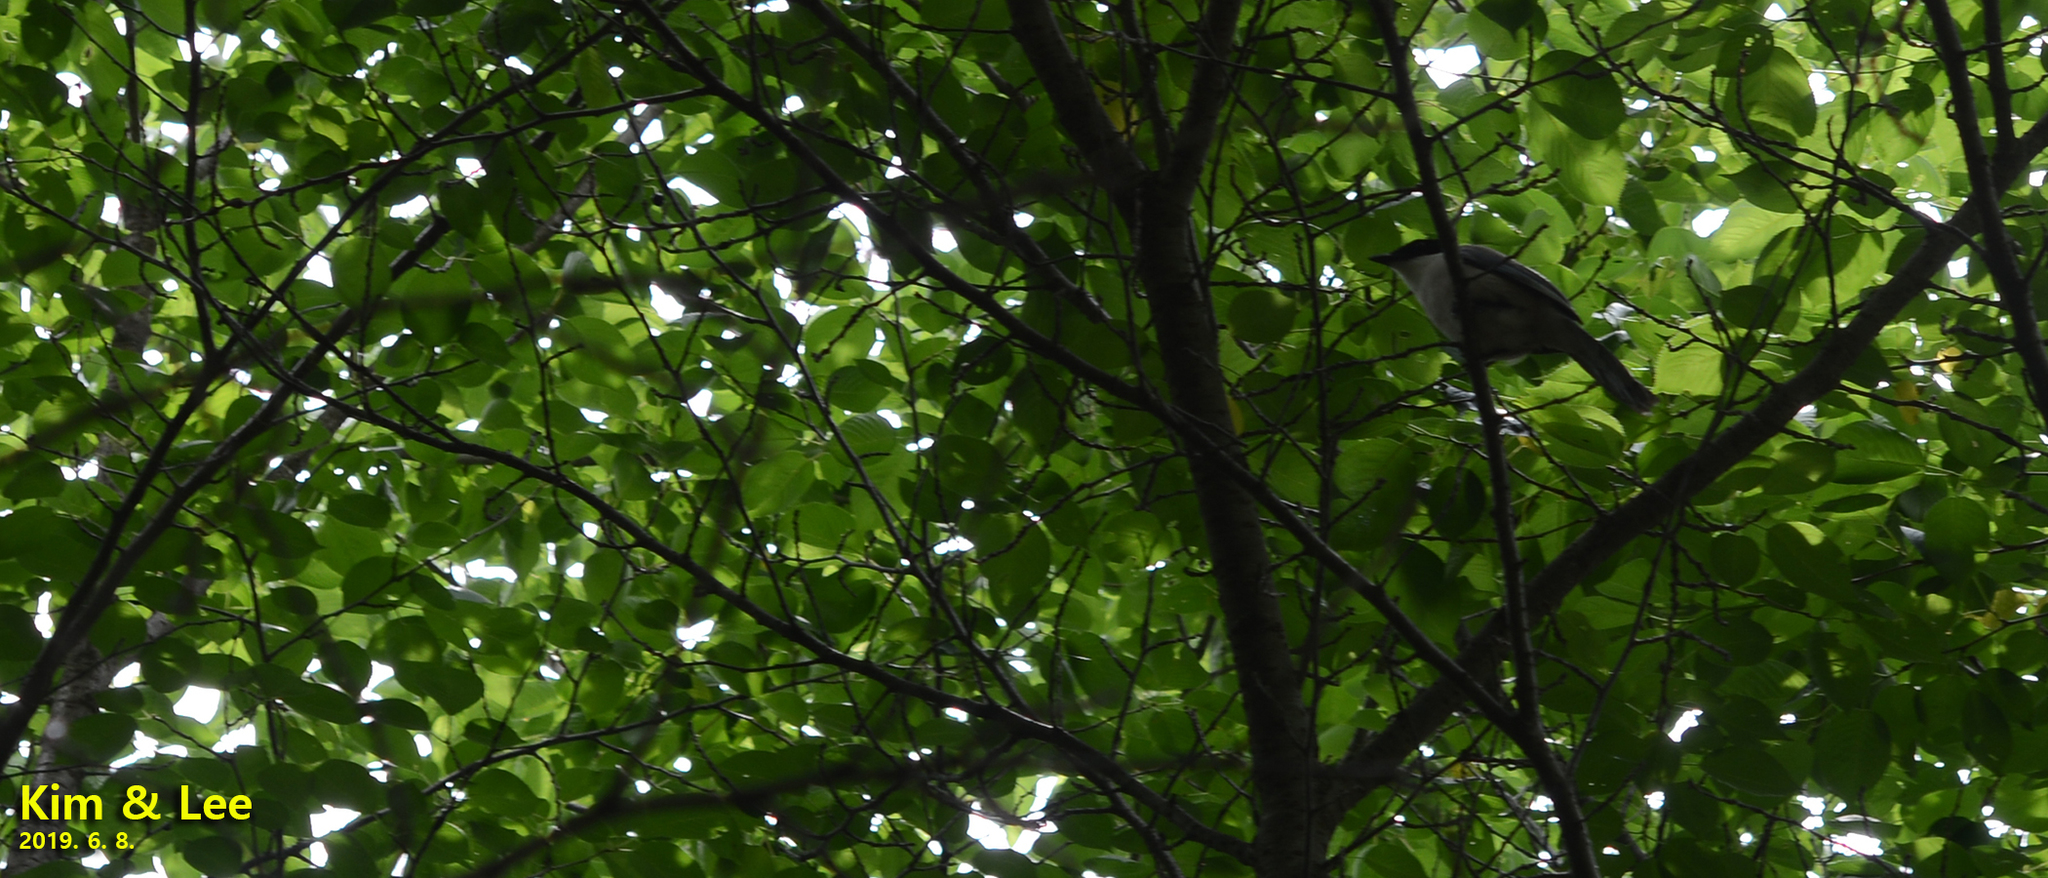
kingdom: Animalia
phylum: Chordata
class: Aves
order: Passeriformes
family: Corvidae
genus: Cyanopica
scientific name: Cyanopica cyanus
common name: Azure-winged magpie
